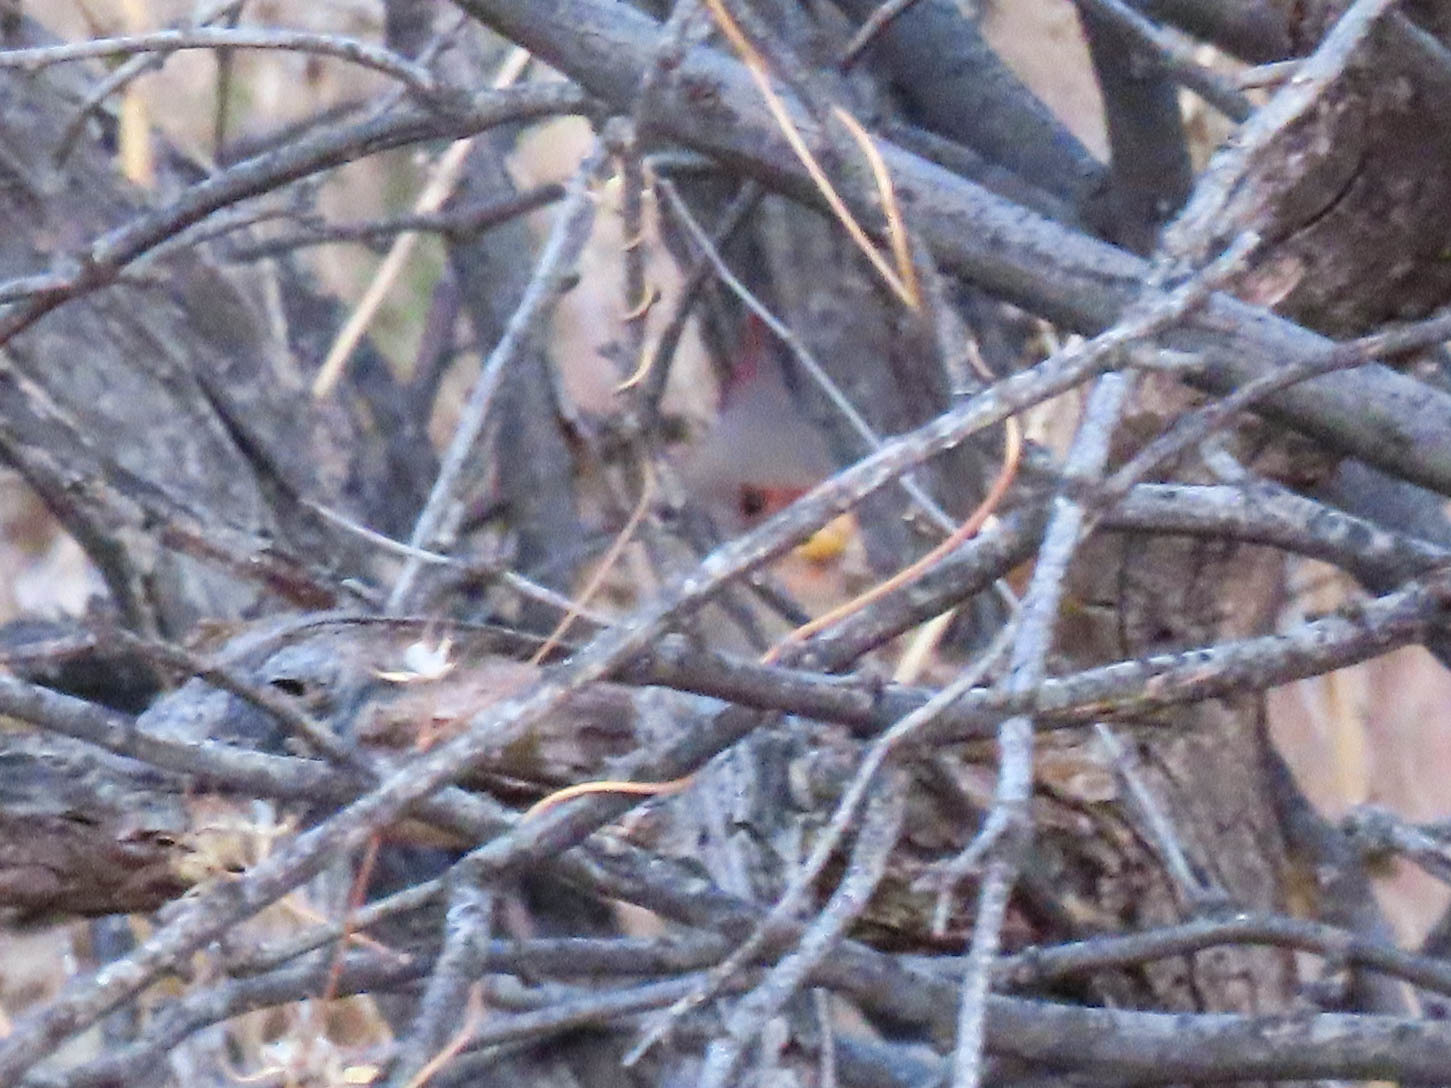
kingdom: Animalia
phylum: Chordata
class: Aves
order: Passeriformes
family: Cardinalidae
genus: Cardinalis
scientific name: Cardinalis sinuatus
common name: Pyrrhuloxia
